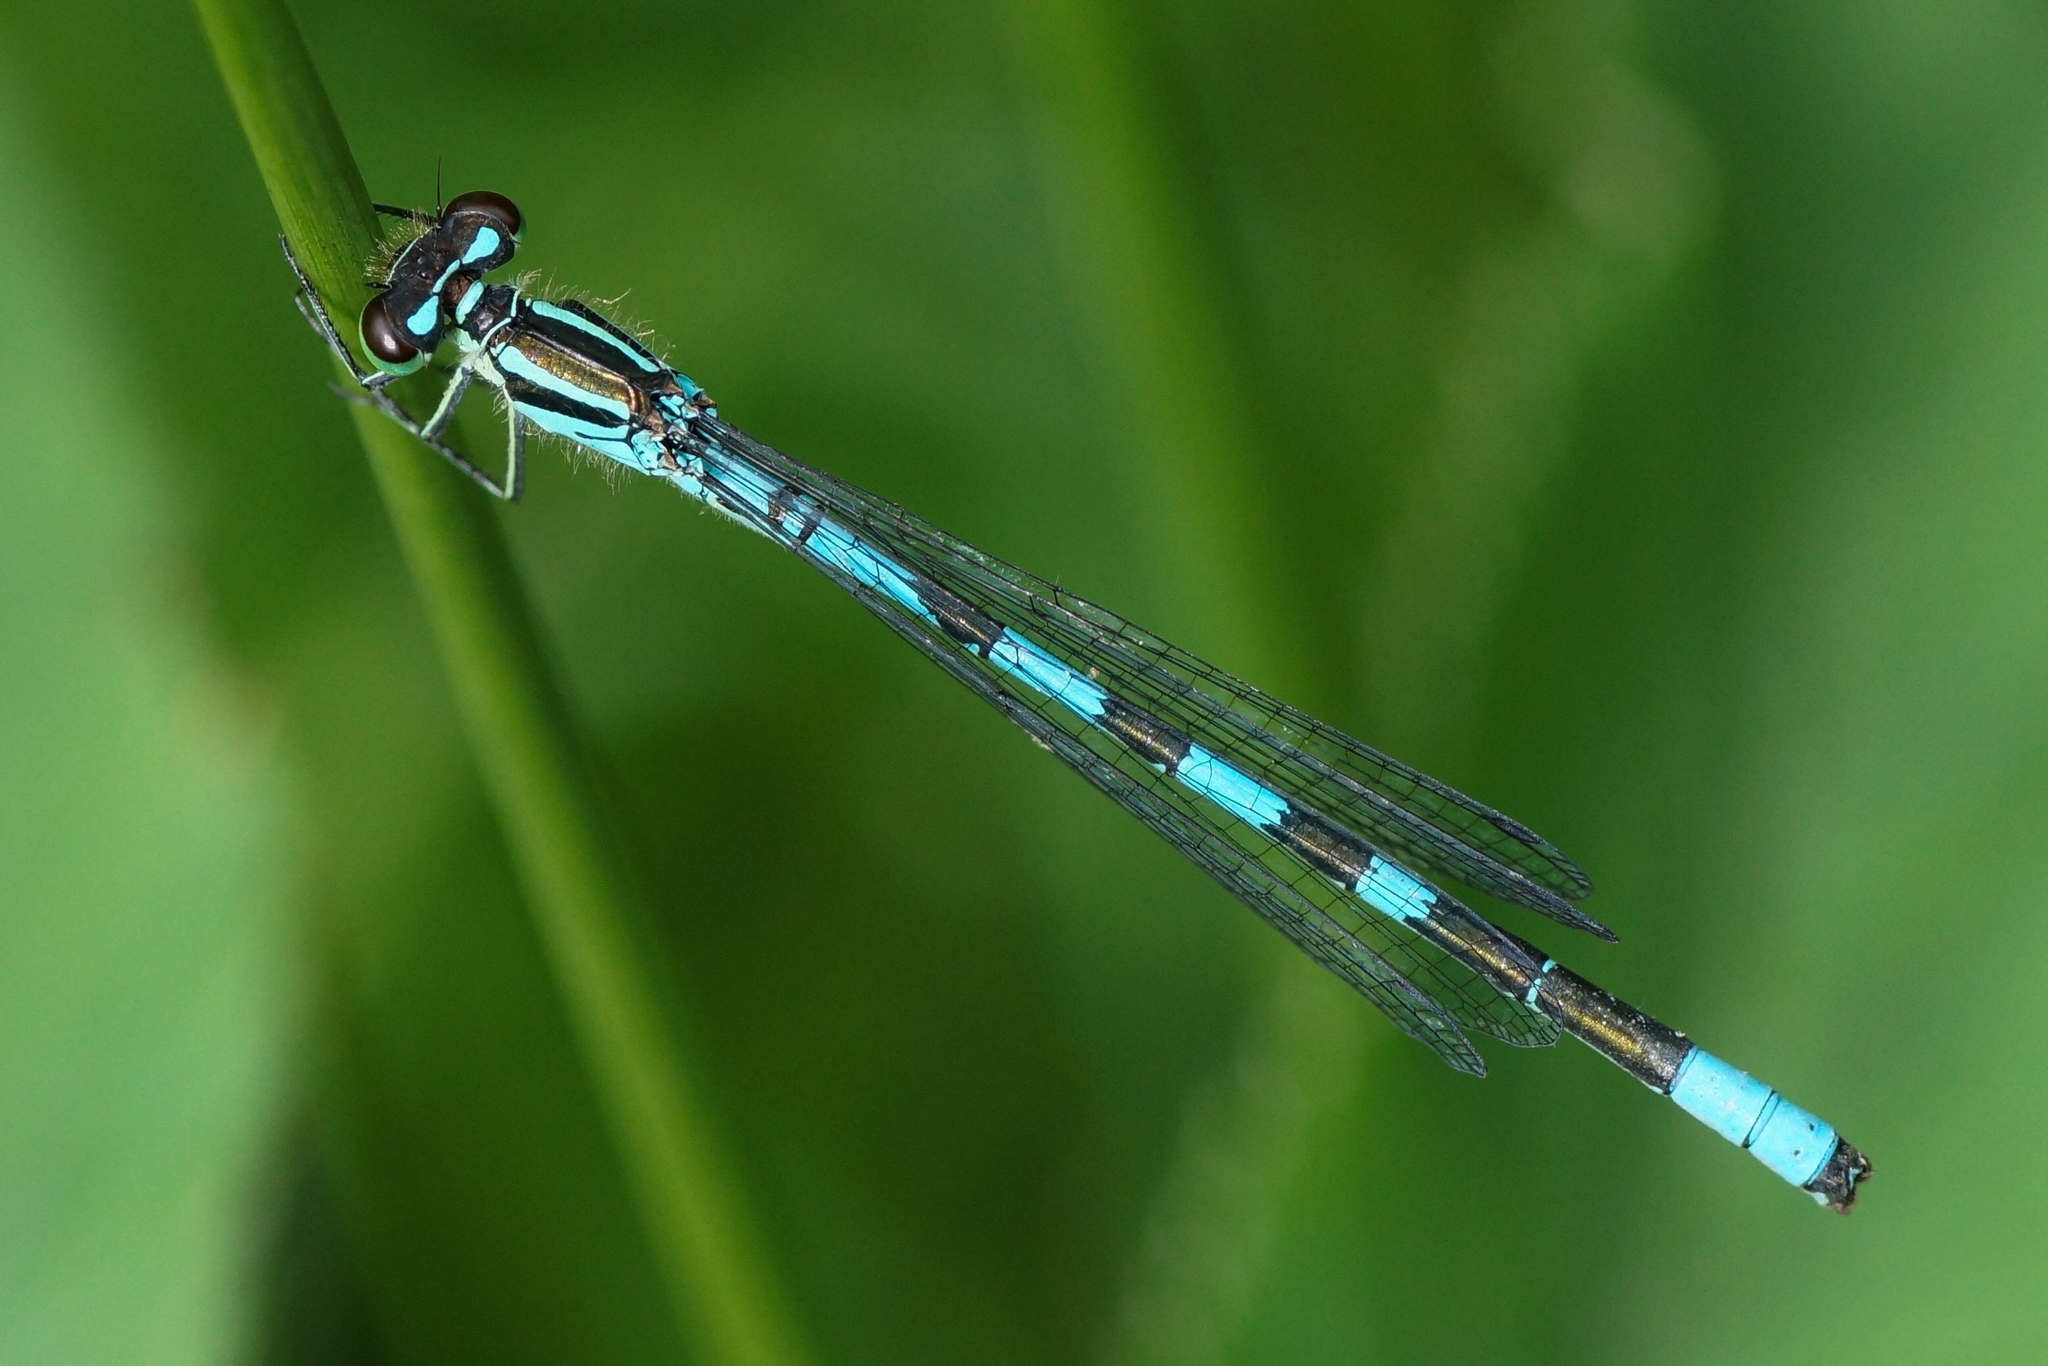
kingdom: Animalia
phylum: Arthropoda
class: Insecta
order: Odonata
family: Coenagrionidae
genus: Coenagrion
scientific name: Coenagrion hastulatum
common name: Spearhead bluet
